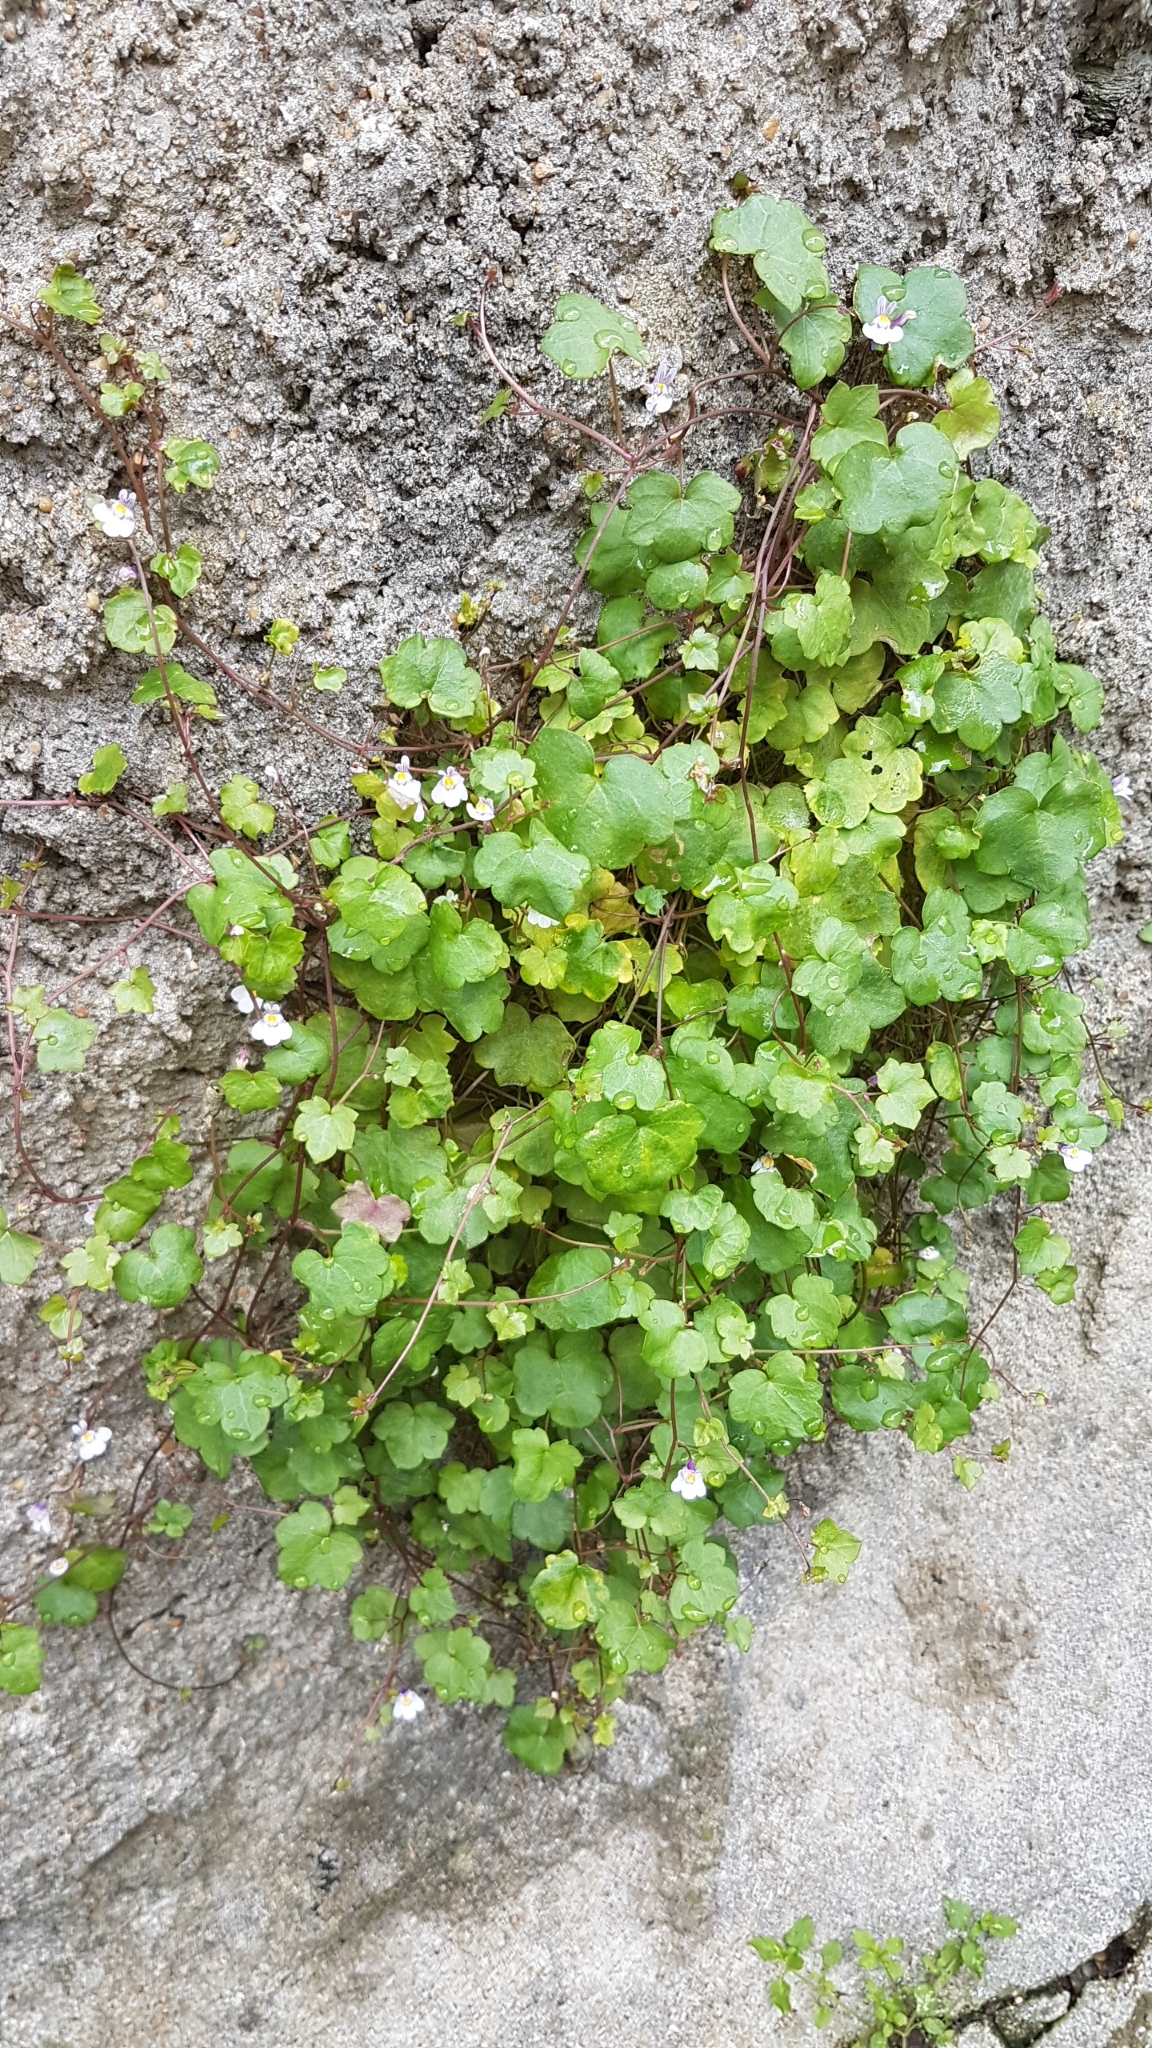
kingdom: Plantae
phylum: Tracheophyta
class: Magnoliopsida
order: Lamiales
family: Plantaginaceae
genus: Cymbalaria
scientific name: Cymbalaria muralis
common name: Ivy-leaved toadflax
